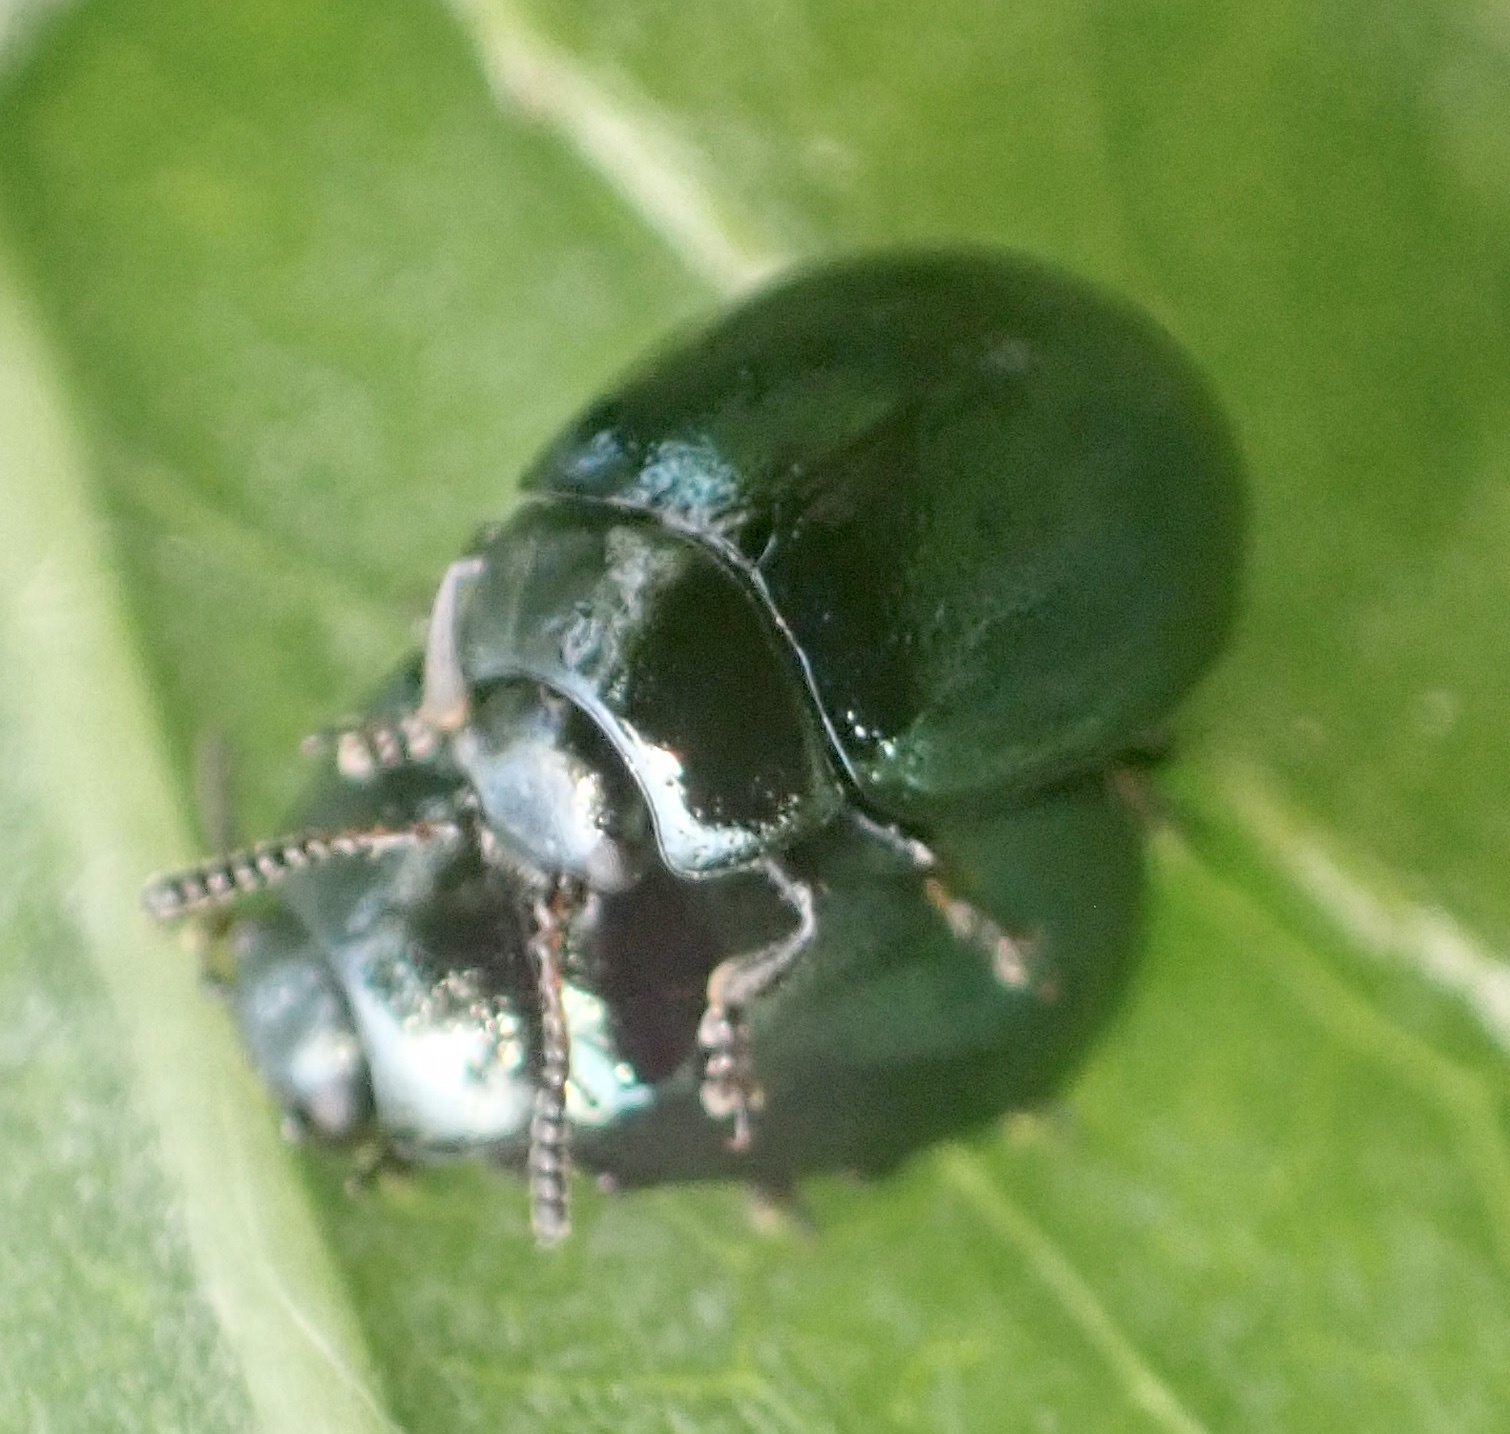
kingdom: Animalia
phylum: Arthropoda
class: Insecta
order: Coleoptera
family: Chrysomelidae
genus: Plagiodera
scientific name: Plagiodera versicolora
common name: Imported willow leaf beetle
